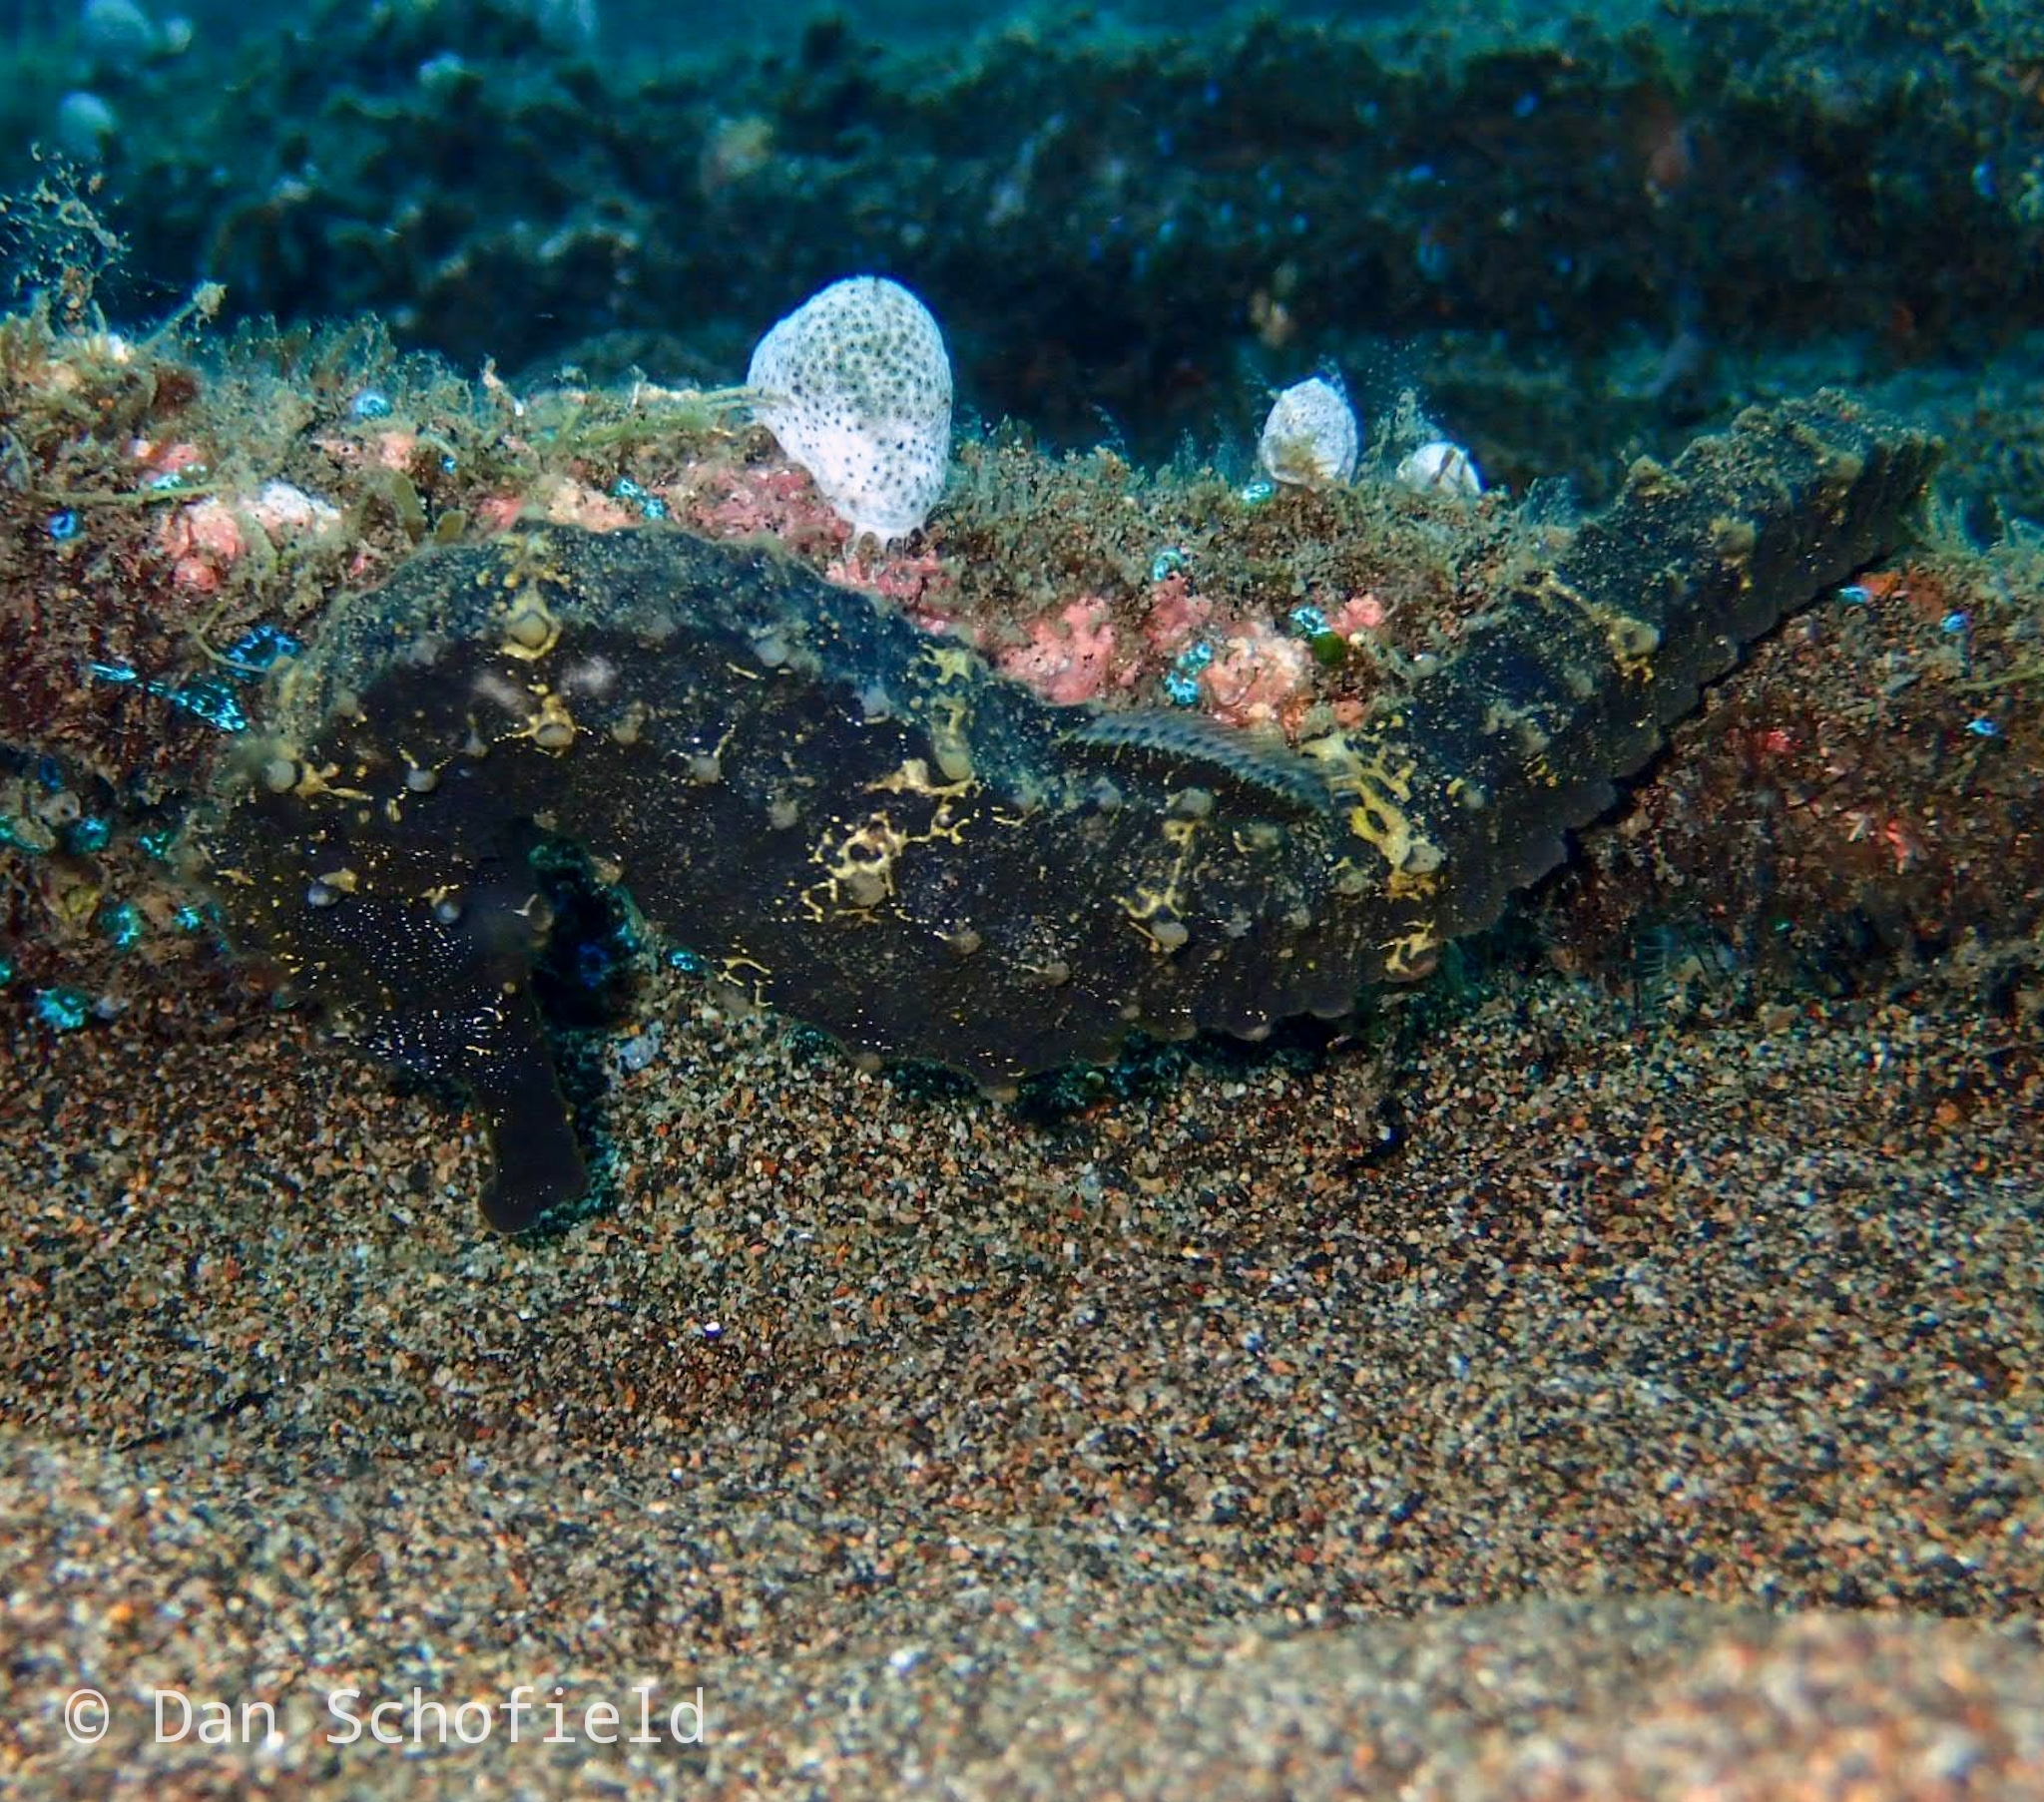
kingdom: Animalia
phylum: Chordata
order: Syngnathiformes
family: Syngnathidae
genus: Hippocampus
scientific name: Hippocampus comes
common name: Tiger tail seahorse
